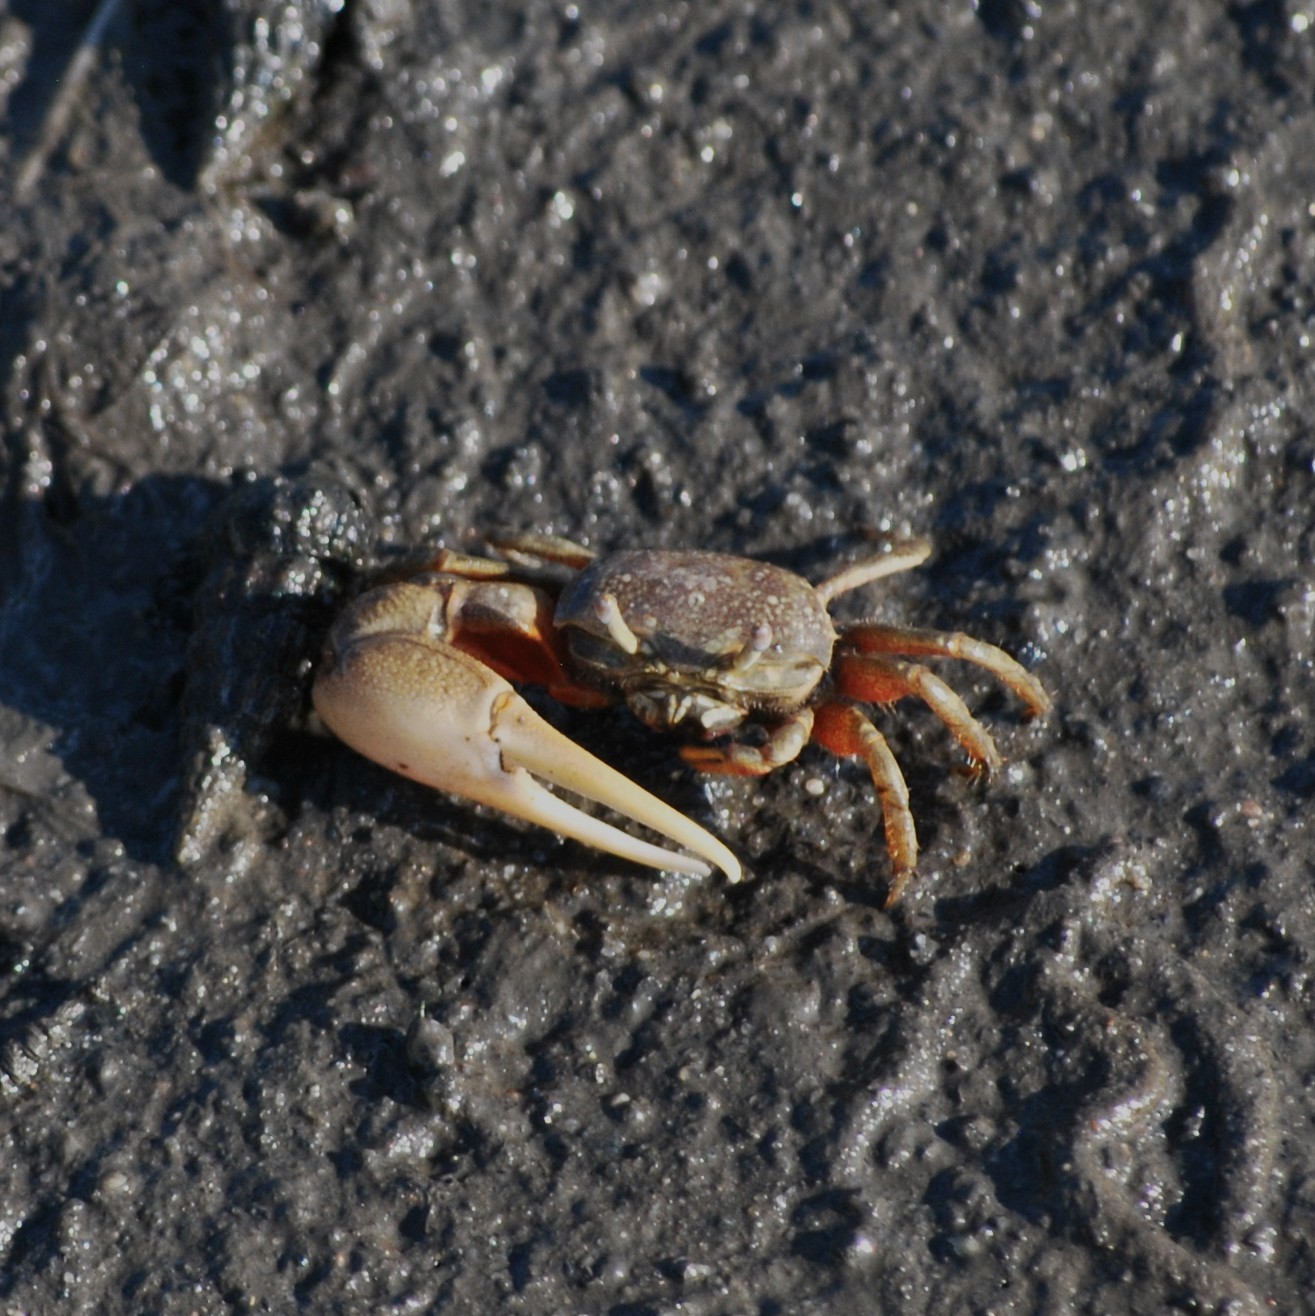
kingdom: Animalia
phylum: Arthropoda
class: Malacostraca
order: Decapoda
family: Ocypodidae
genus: Leptuca
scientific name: Leptuca crenulata
